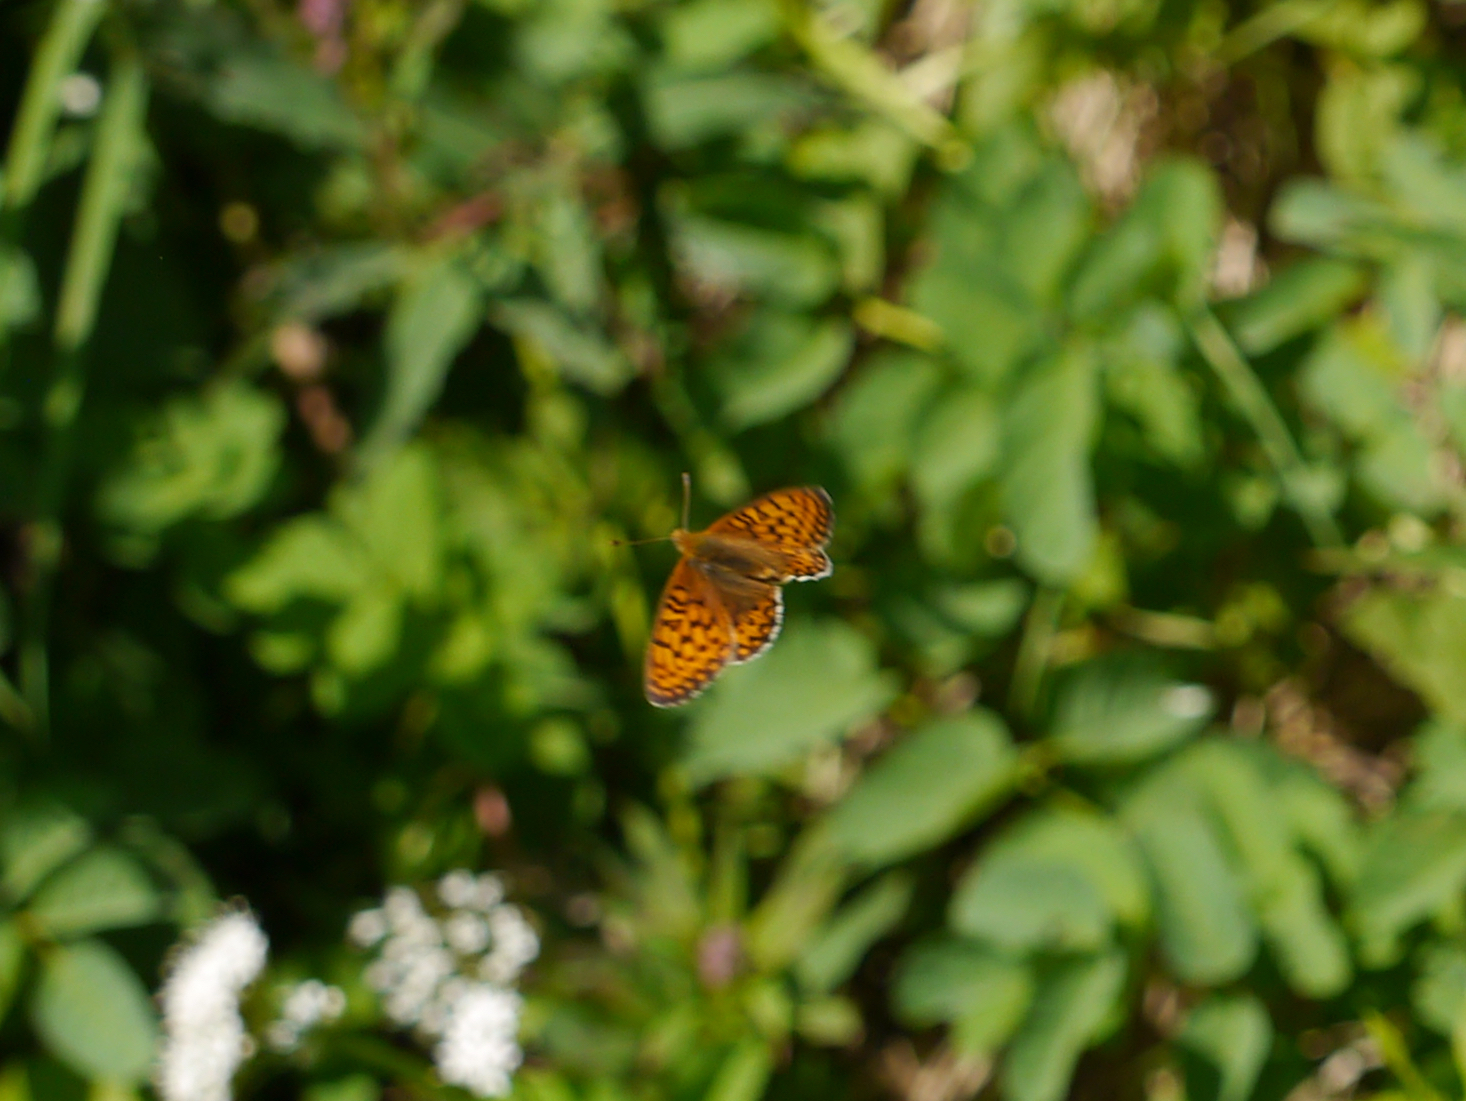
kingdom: Animalia
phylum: Arthropoda
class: Insecta
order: Lepidoptera
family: Nymphalidae
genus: Speyeria
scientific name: Speyeria mormonia
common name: Mormon fritillary
